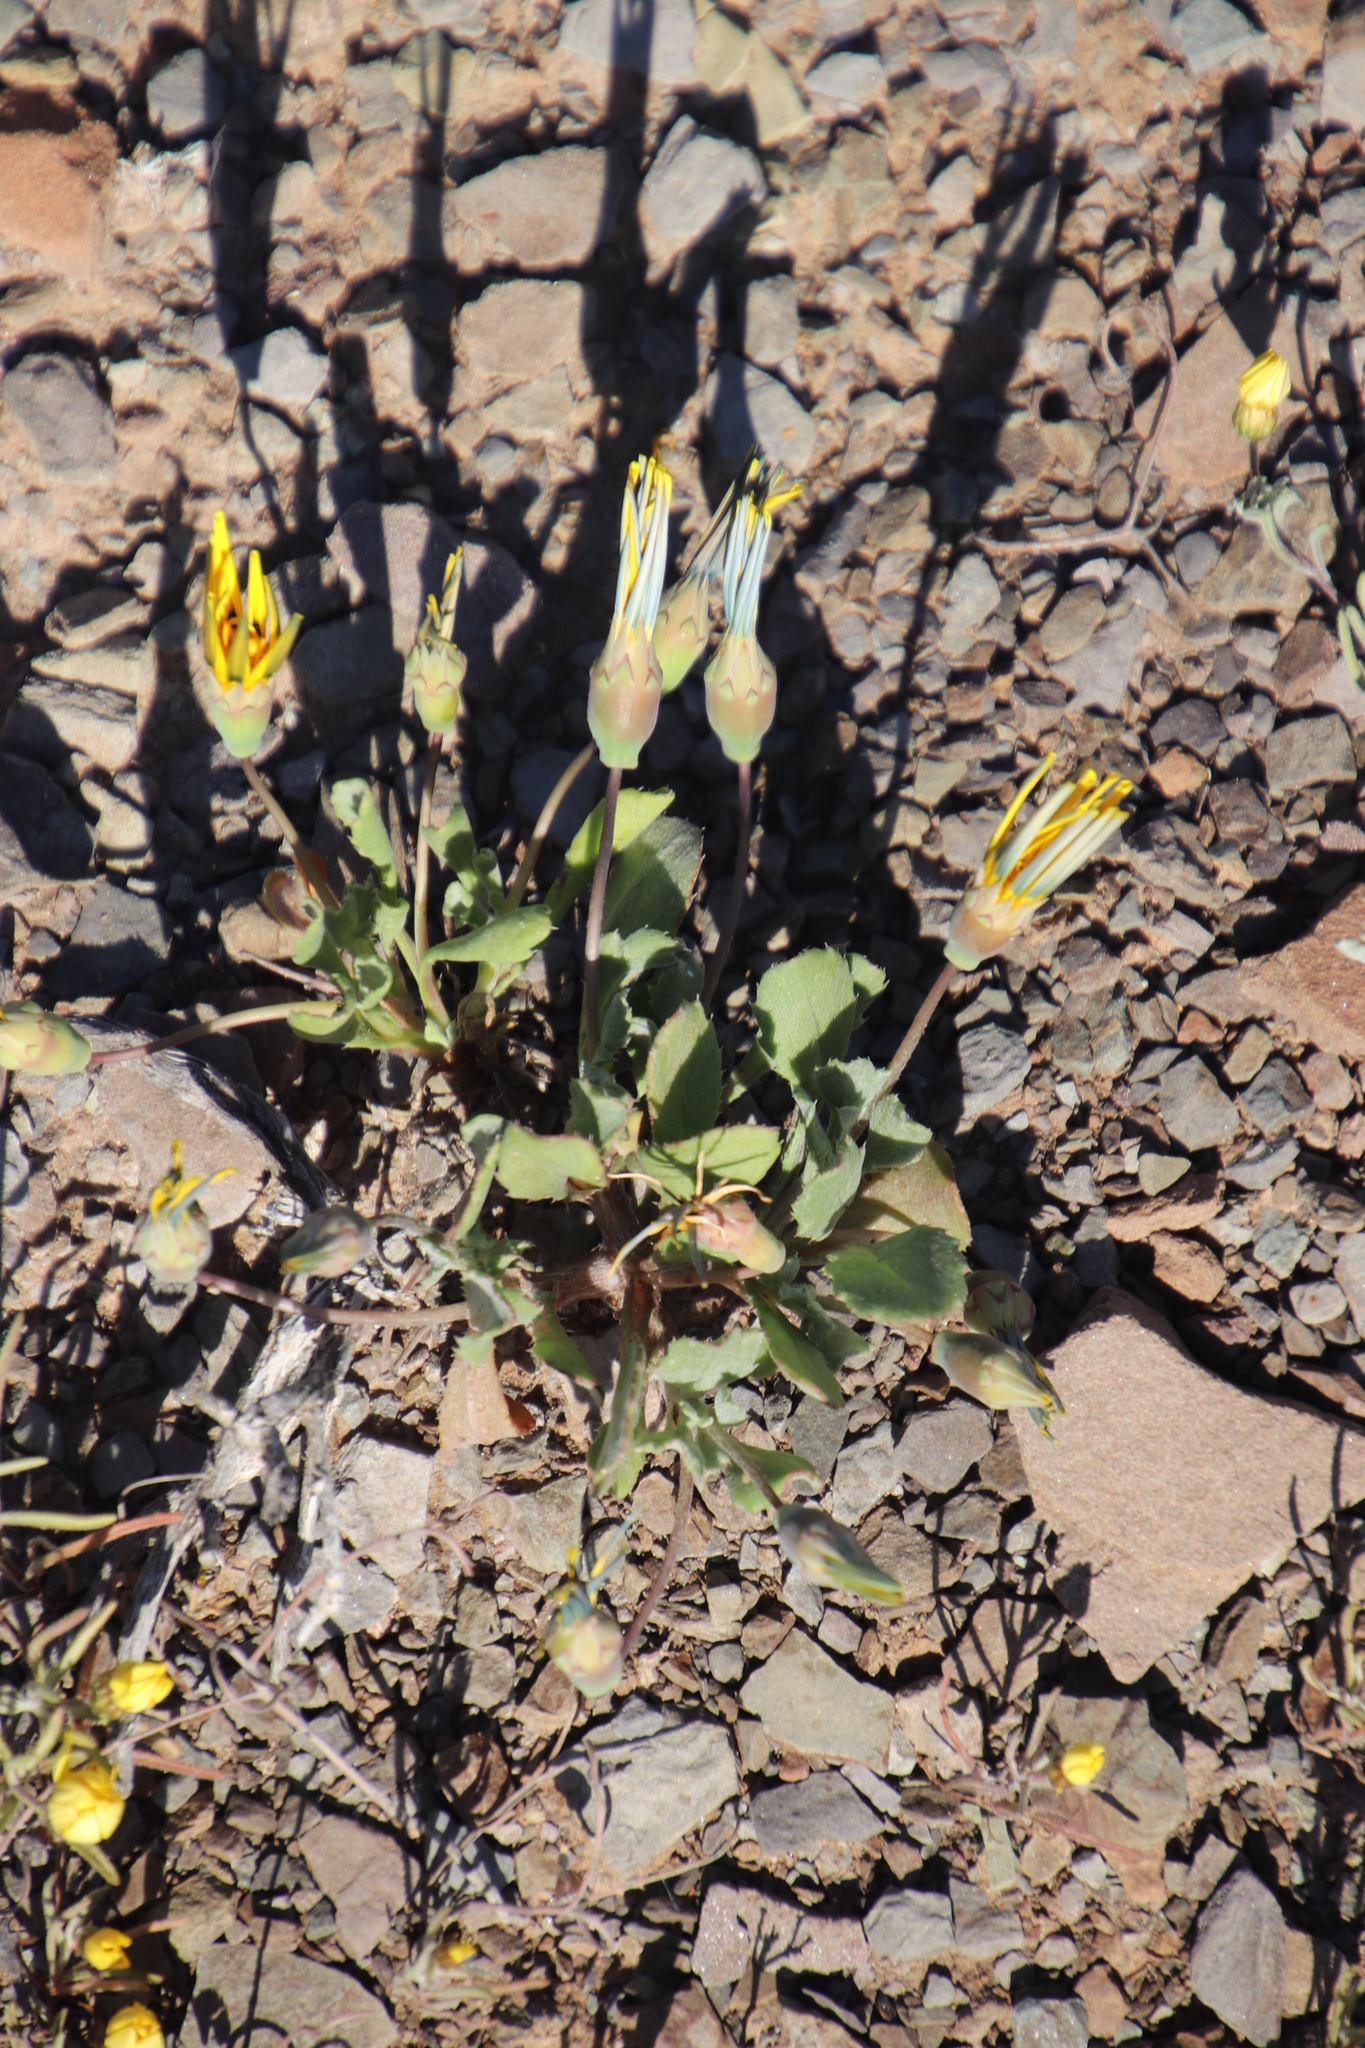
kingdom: Plantae
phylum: Tracheophyta
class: Magnoliopsida
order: Asterales
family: Asteraceae
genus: Gazania
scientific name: Gazania lichtensteinii
